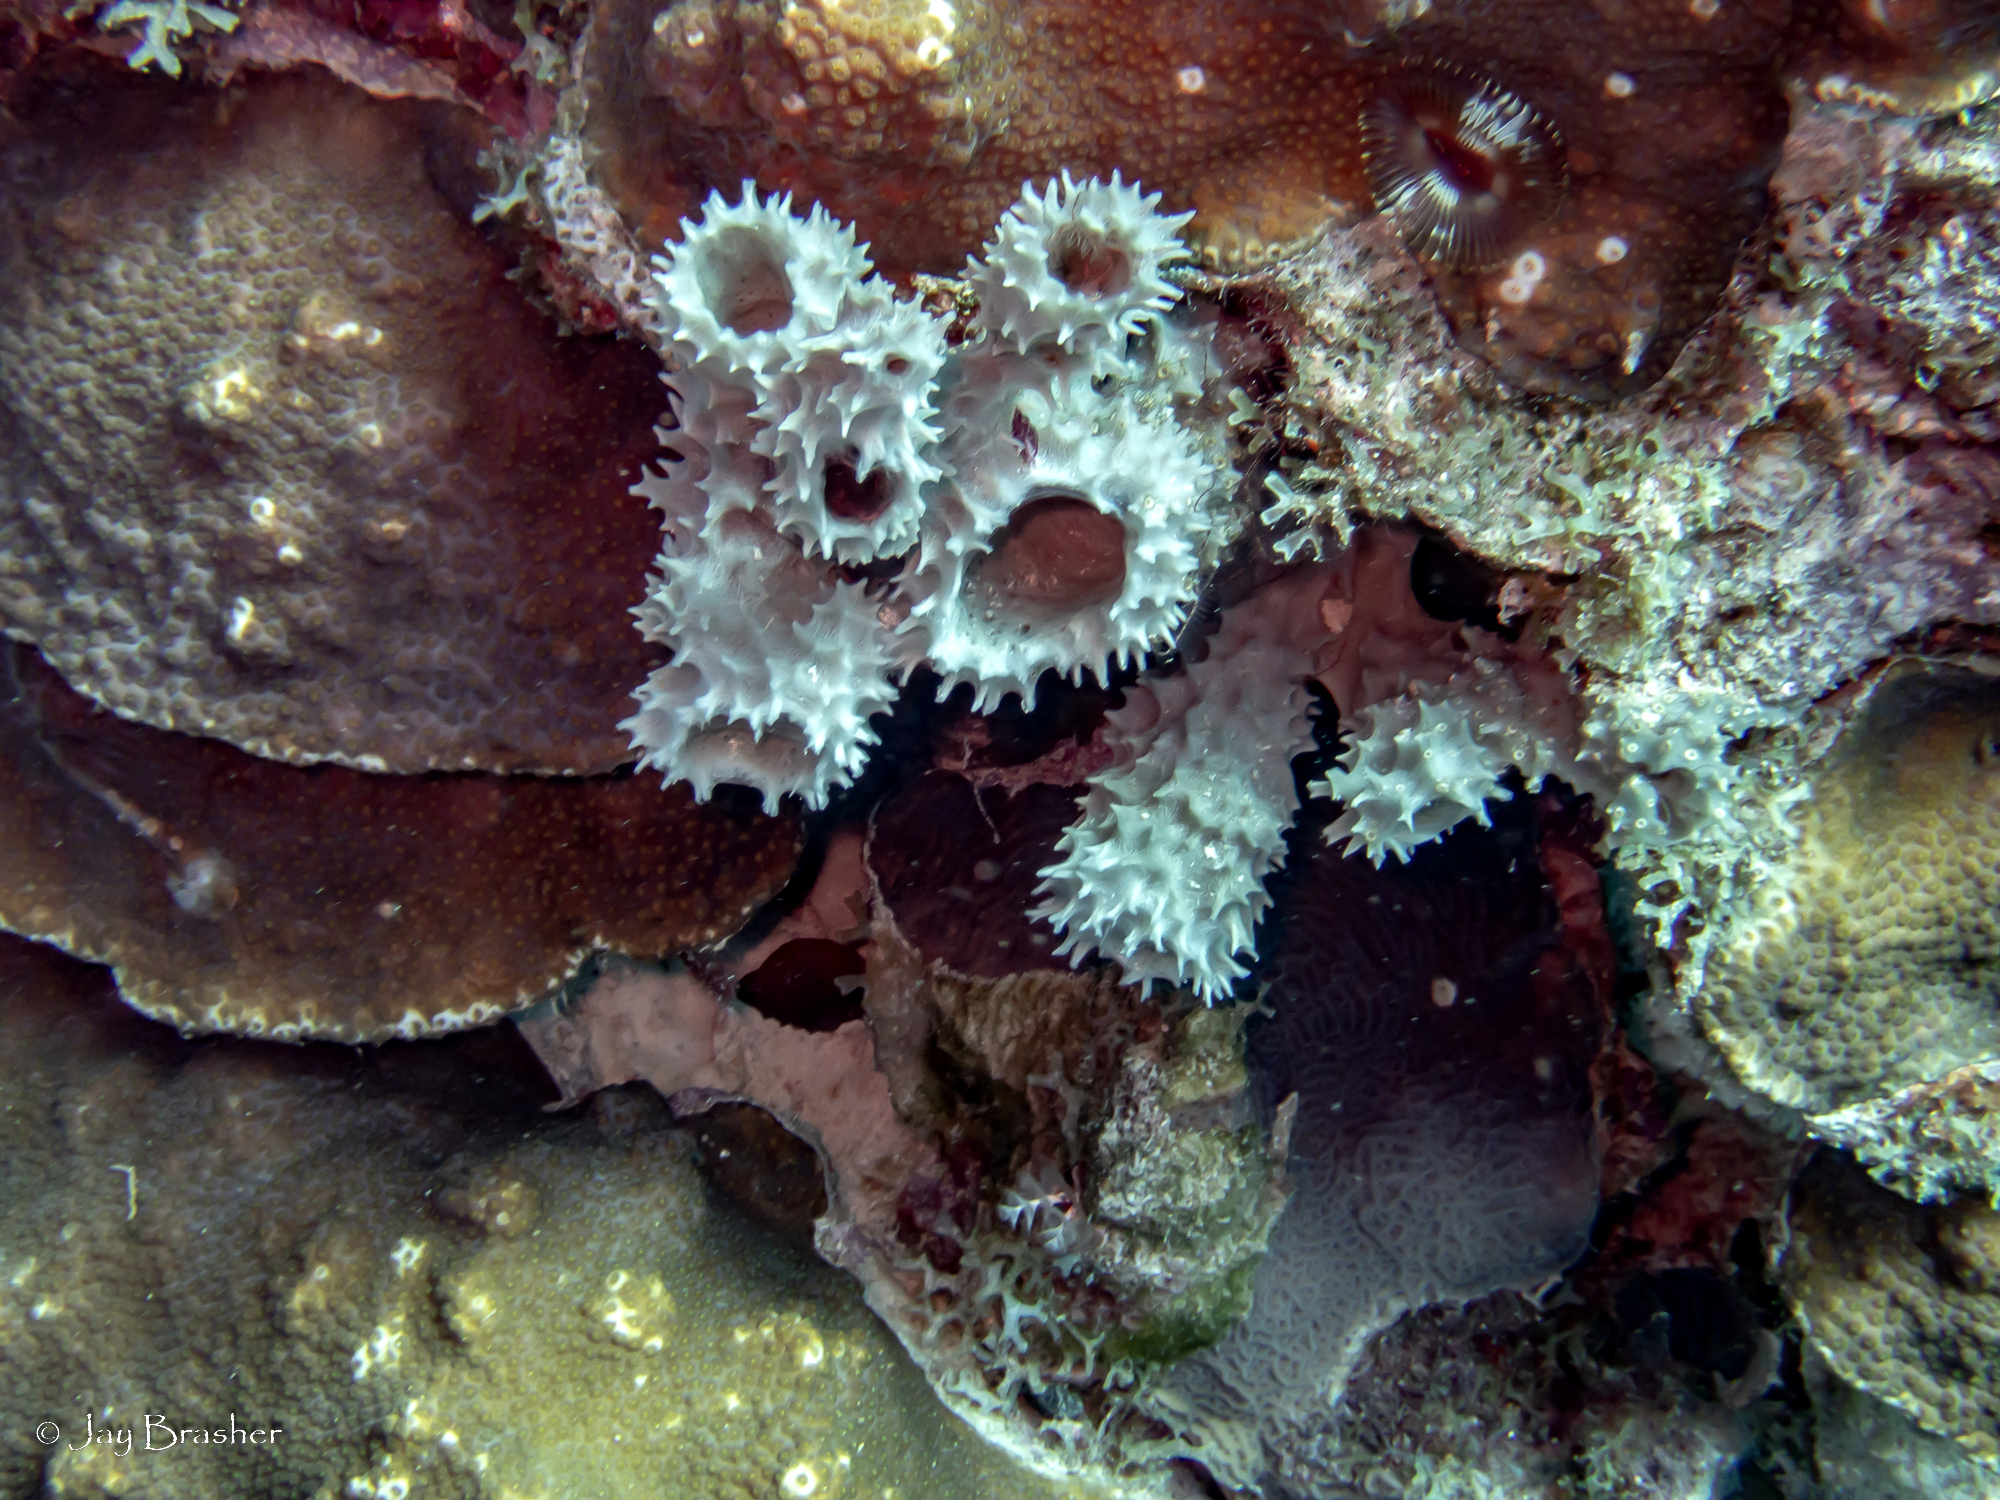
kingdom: Animalia
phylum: Porifera
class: Demospongiae
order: Haplosclerida
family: Callyspongiidae
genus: Callyspongia
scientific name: Callyspongia aculeata
